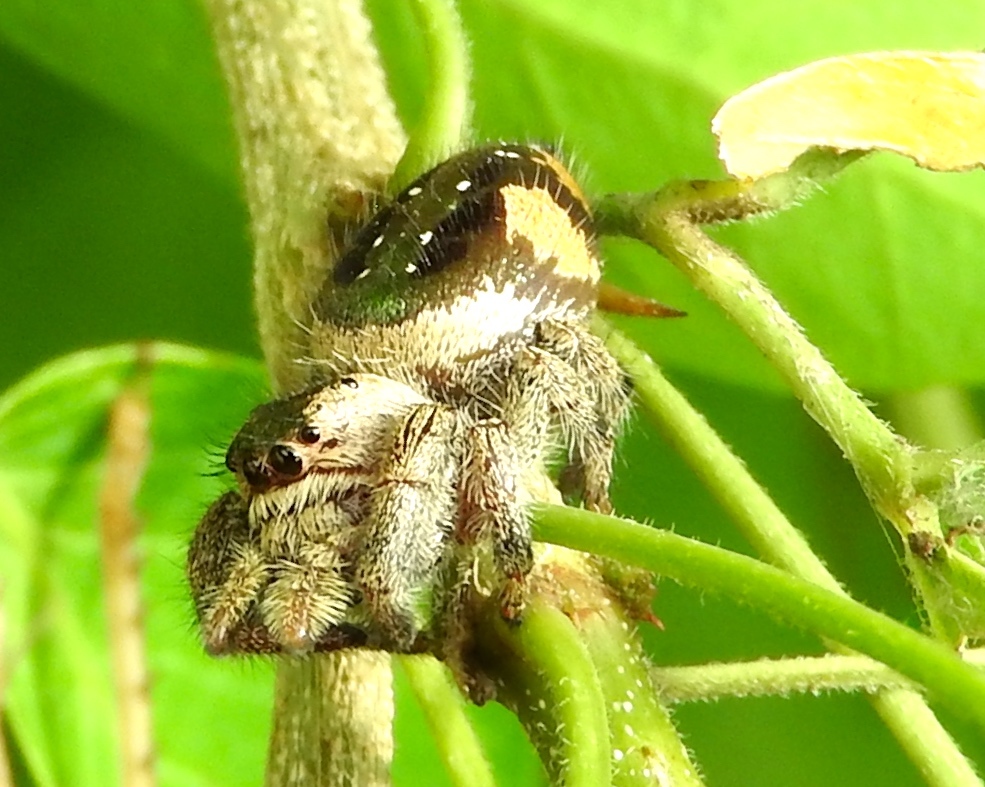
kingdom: Animalia
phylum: Arthropoda
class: Arachnida
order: Araneae
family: Salticidae
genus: Paraphidippus
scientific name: Paraphidippus aurantius
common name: Jumping spiders
